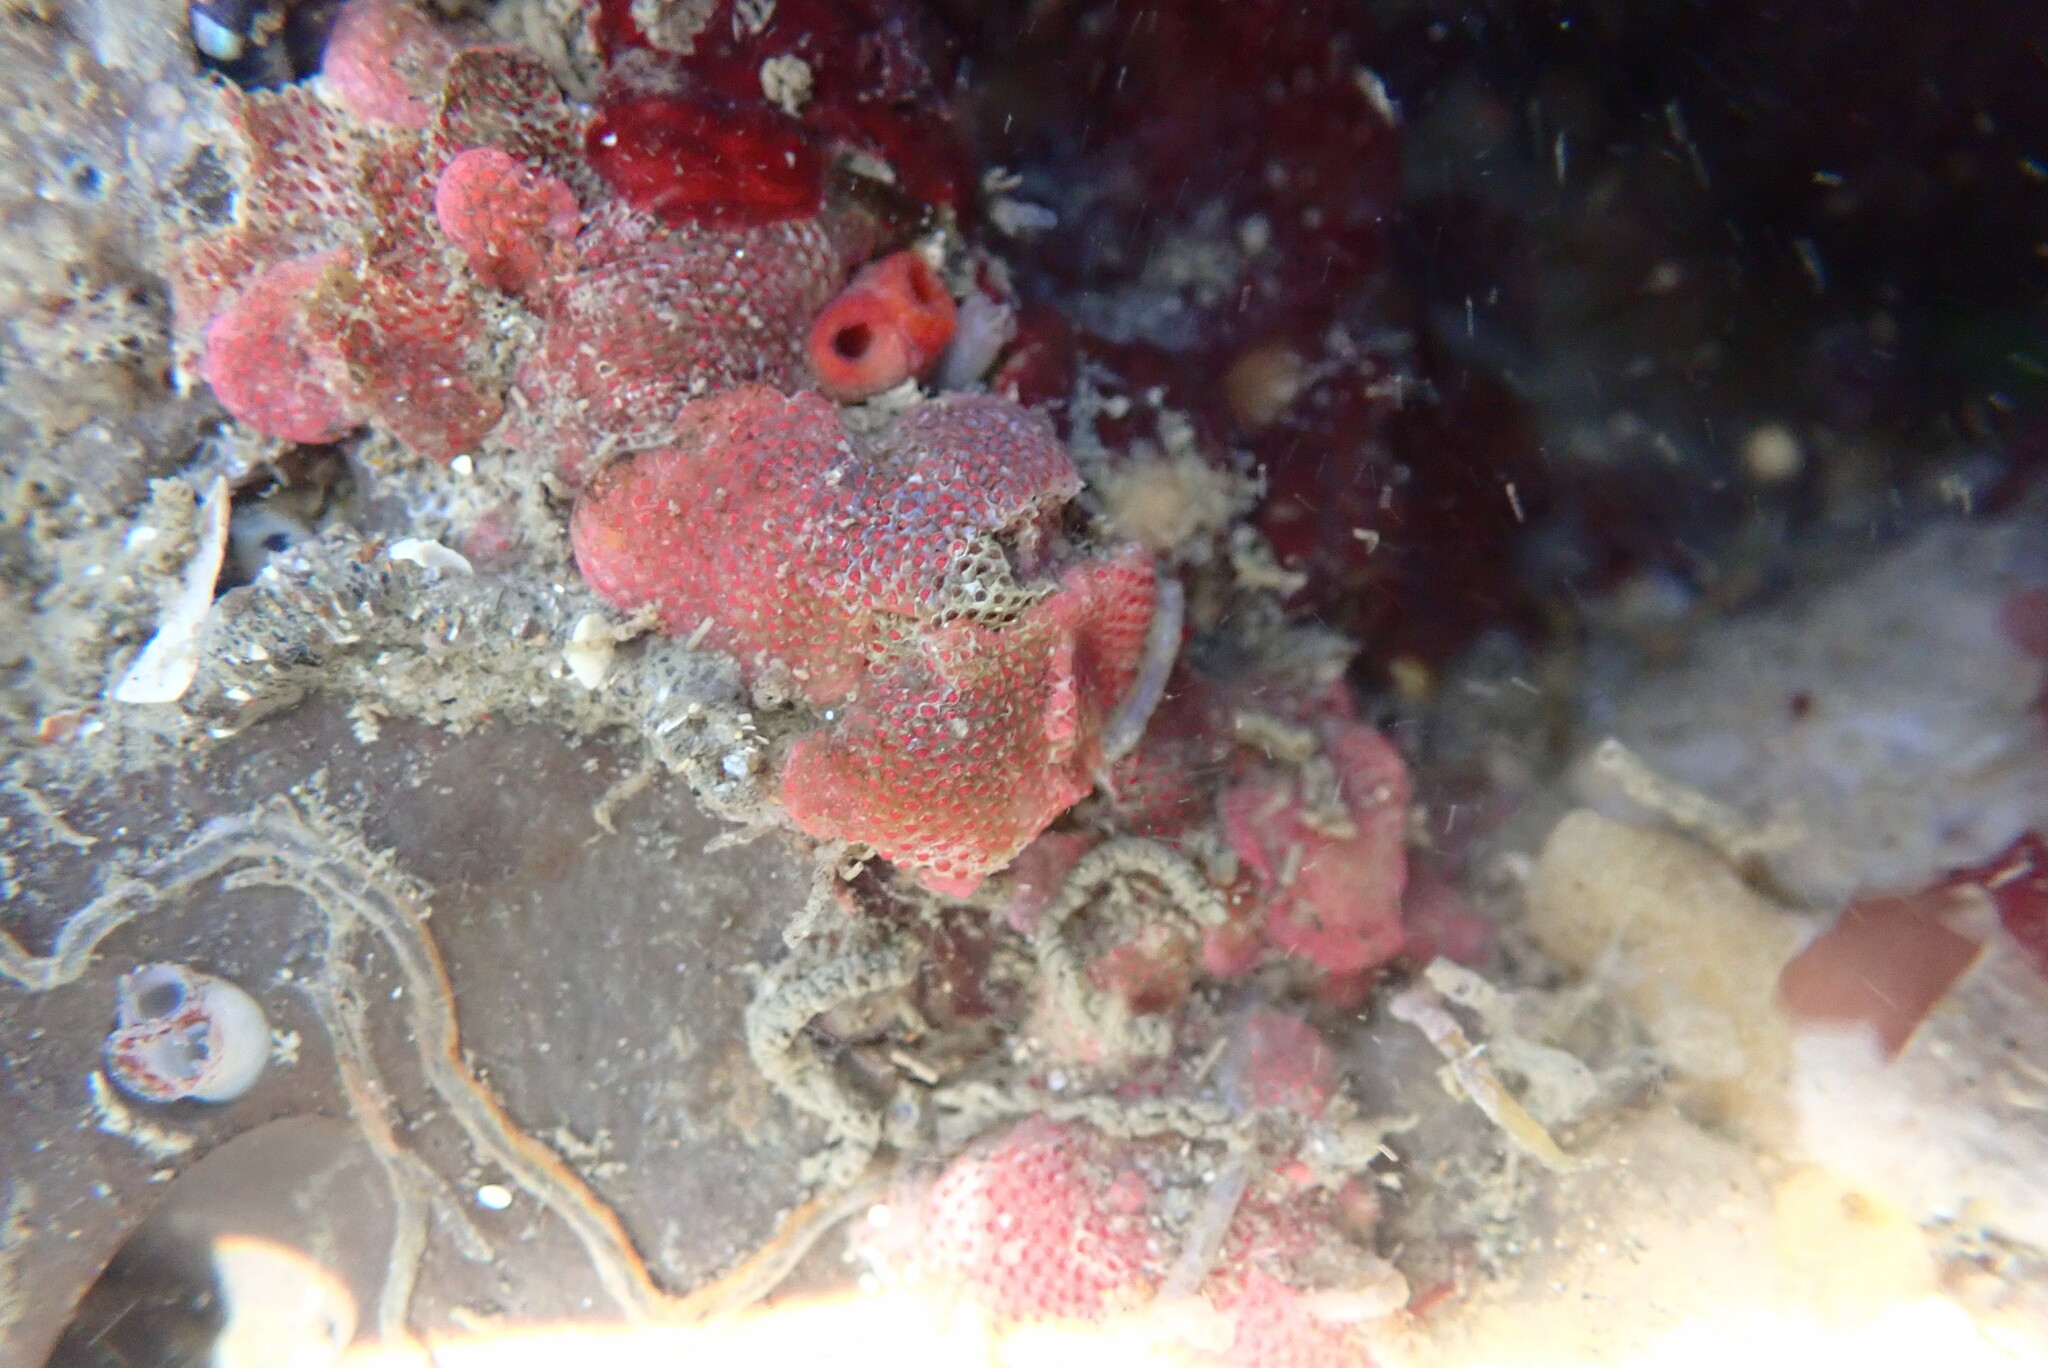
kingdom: Animalia
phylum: Bryozoa
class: Gymnolaemata
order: Cheilostomatida
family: Eurystomellidae
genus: Integripelta
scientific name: Integripelta bilabiata
